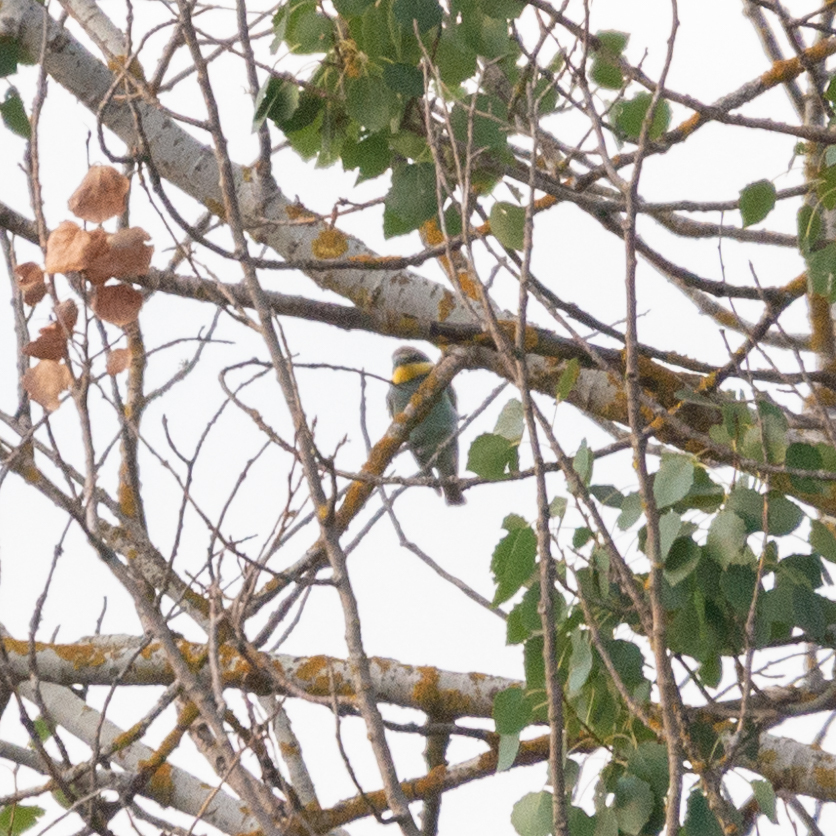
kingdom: Animalia
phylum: Chordata
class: Aves
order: Coraciiformes
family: Meropidae
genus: Merops
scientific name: Merops apiaster
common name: European bee-eater
